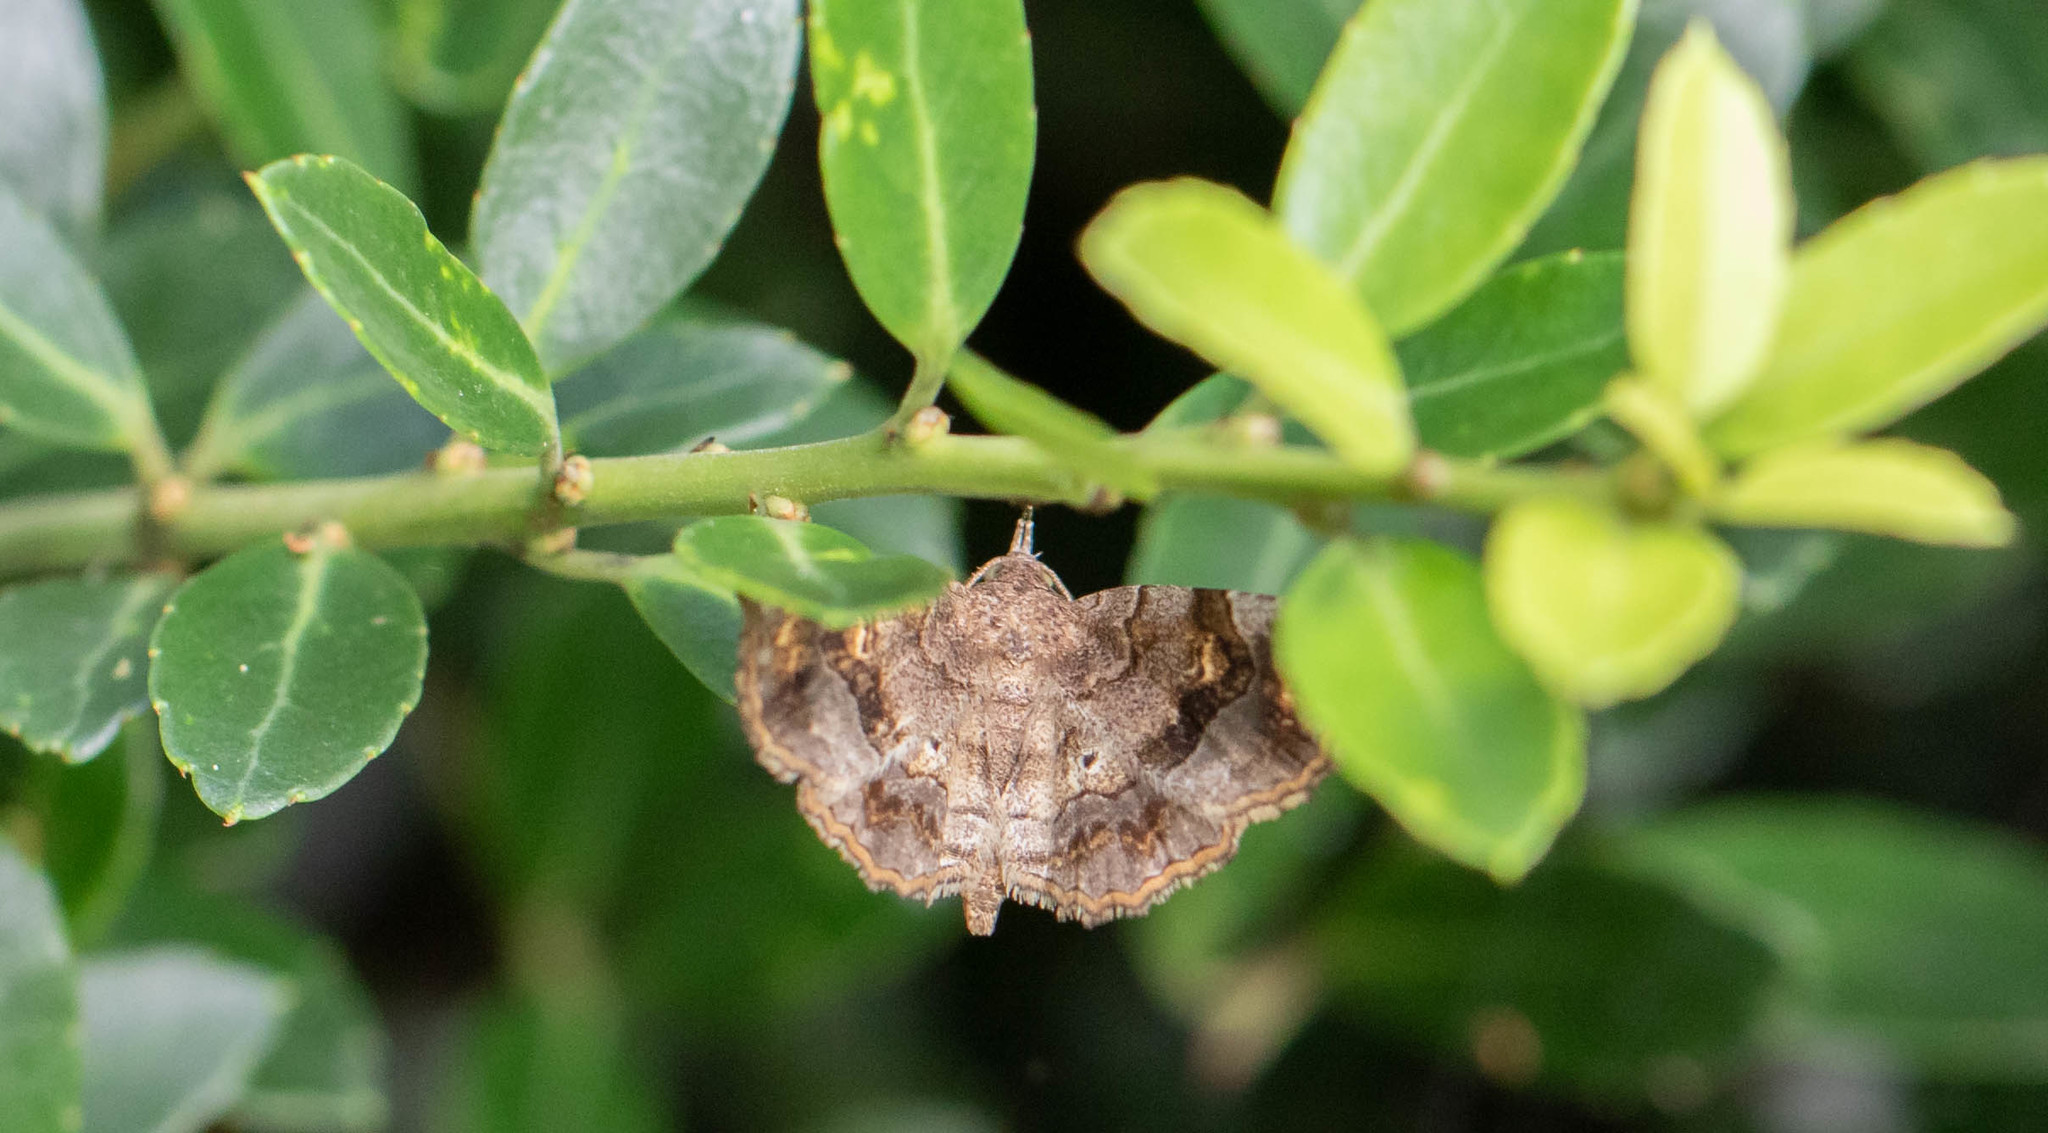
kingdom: Animalia
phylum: Arthropoda
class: Insecta
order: Lepidoptera
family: Erebidae
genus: Pangrapta
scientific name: Pangrapta decoralis
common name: Decorated owlet
